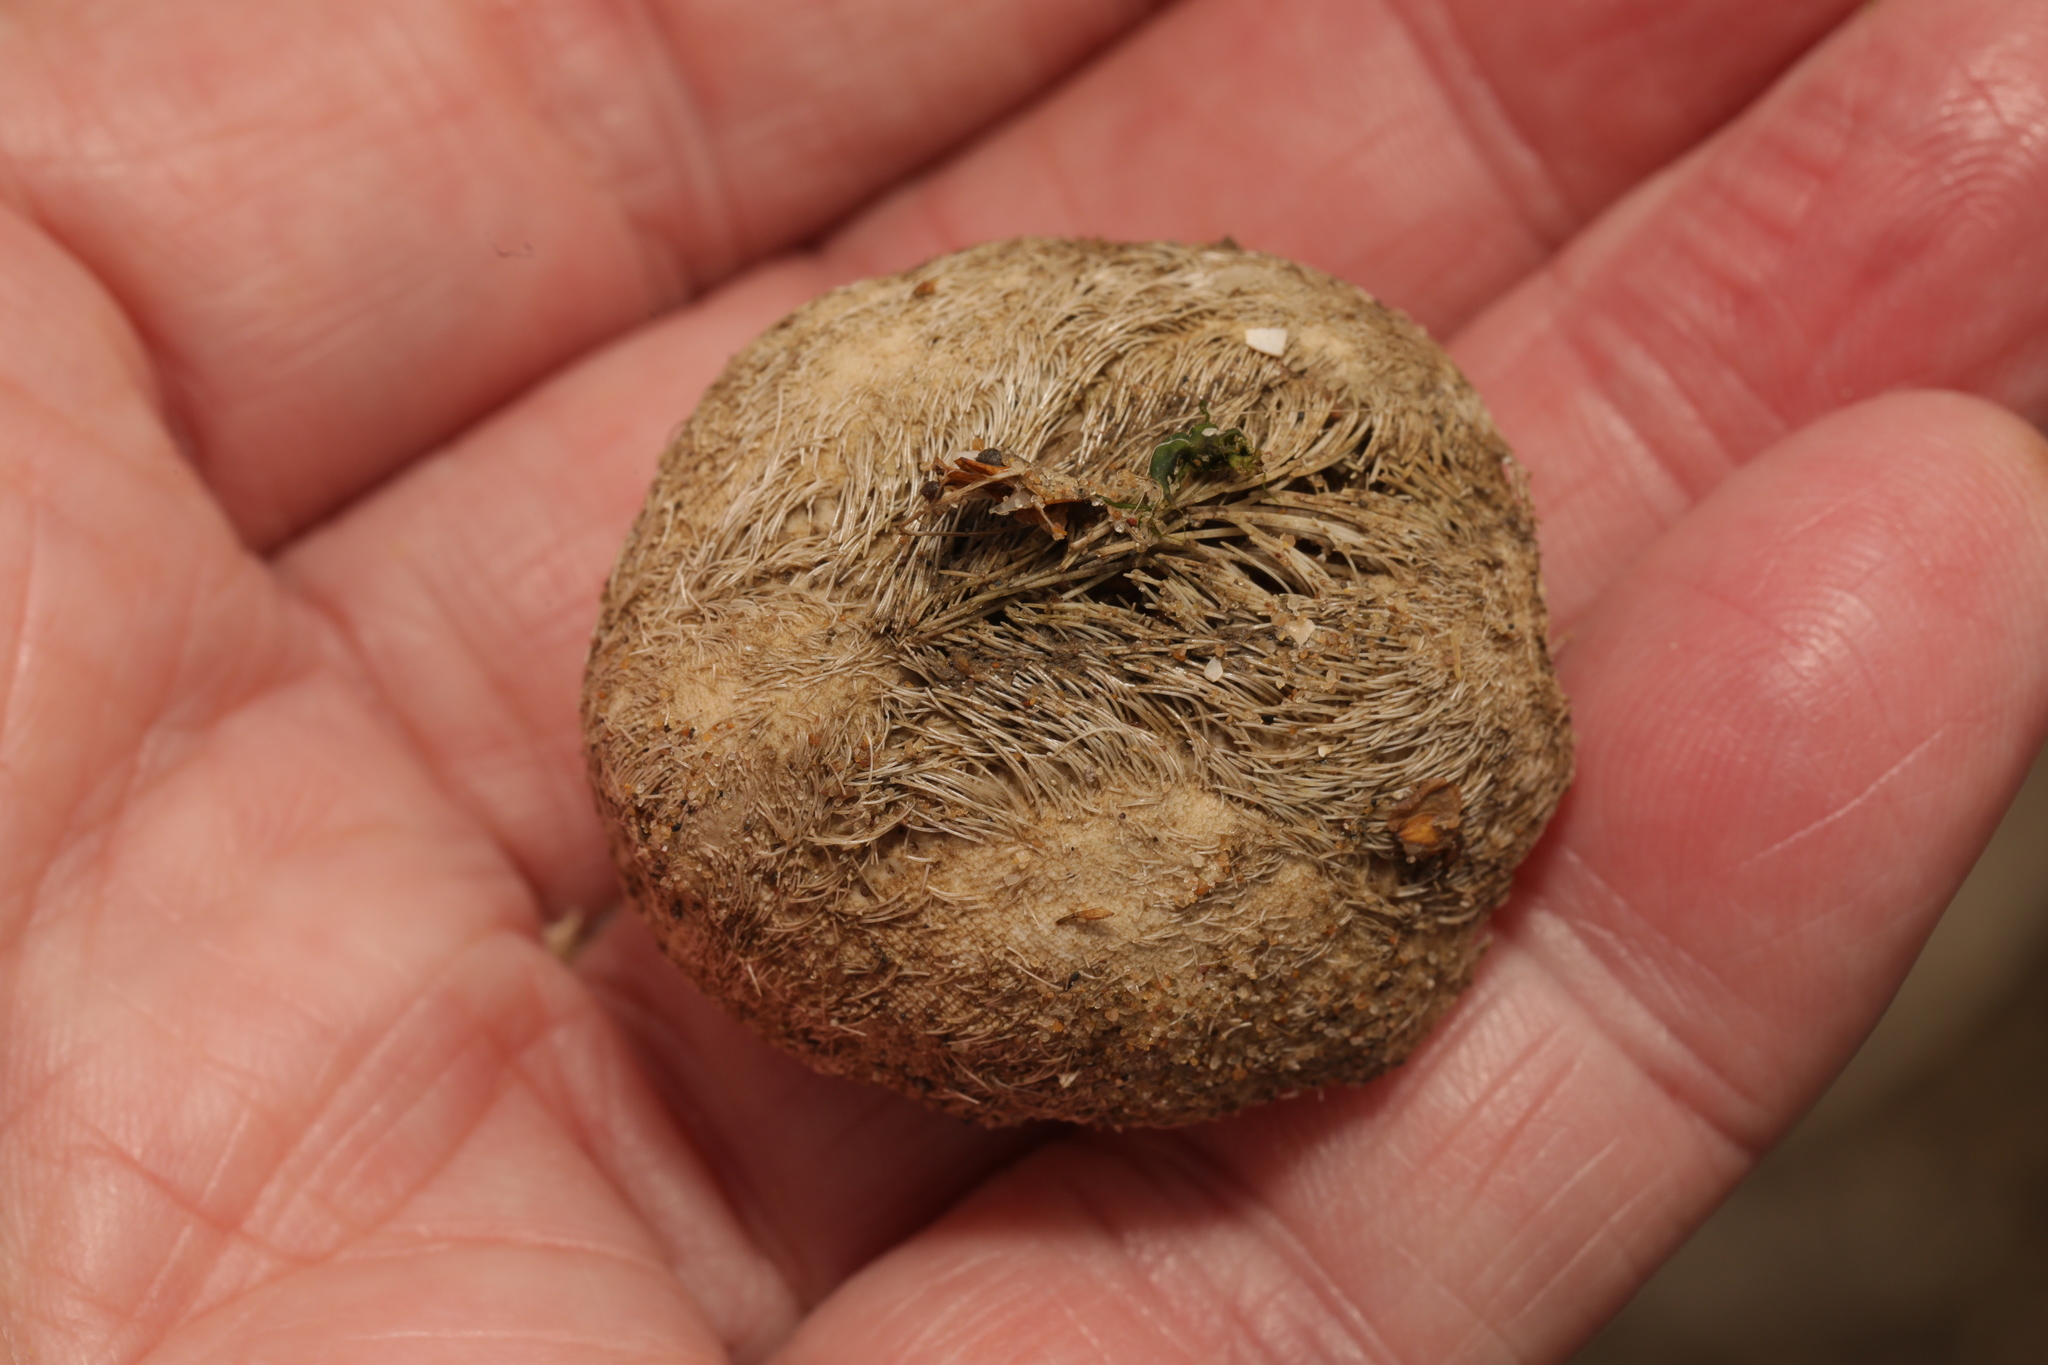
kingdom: Animalia
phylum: Echinodermata
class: Echinoidea
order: Spatangoida
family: Loveniidae
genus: Echinocardium
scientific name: Echinocardium cordatum
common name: Heart-urchin
